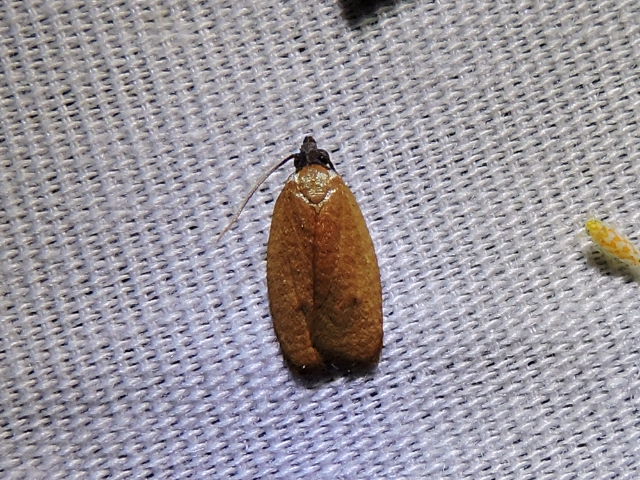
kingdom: Animalia
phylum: Arthropoda
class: Insecta
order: Lepidoptera
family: Tortricidae
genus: Sparganothis
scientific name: Sparganothis demissana
